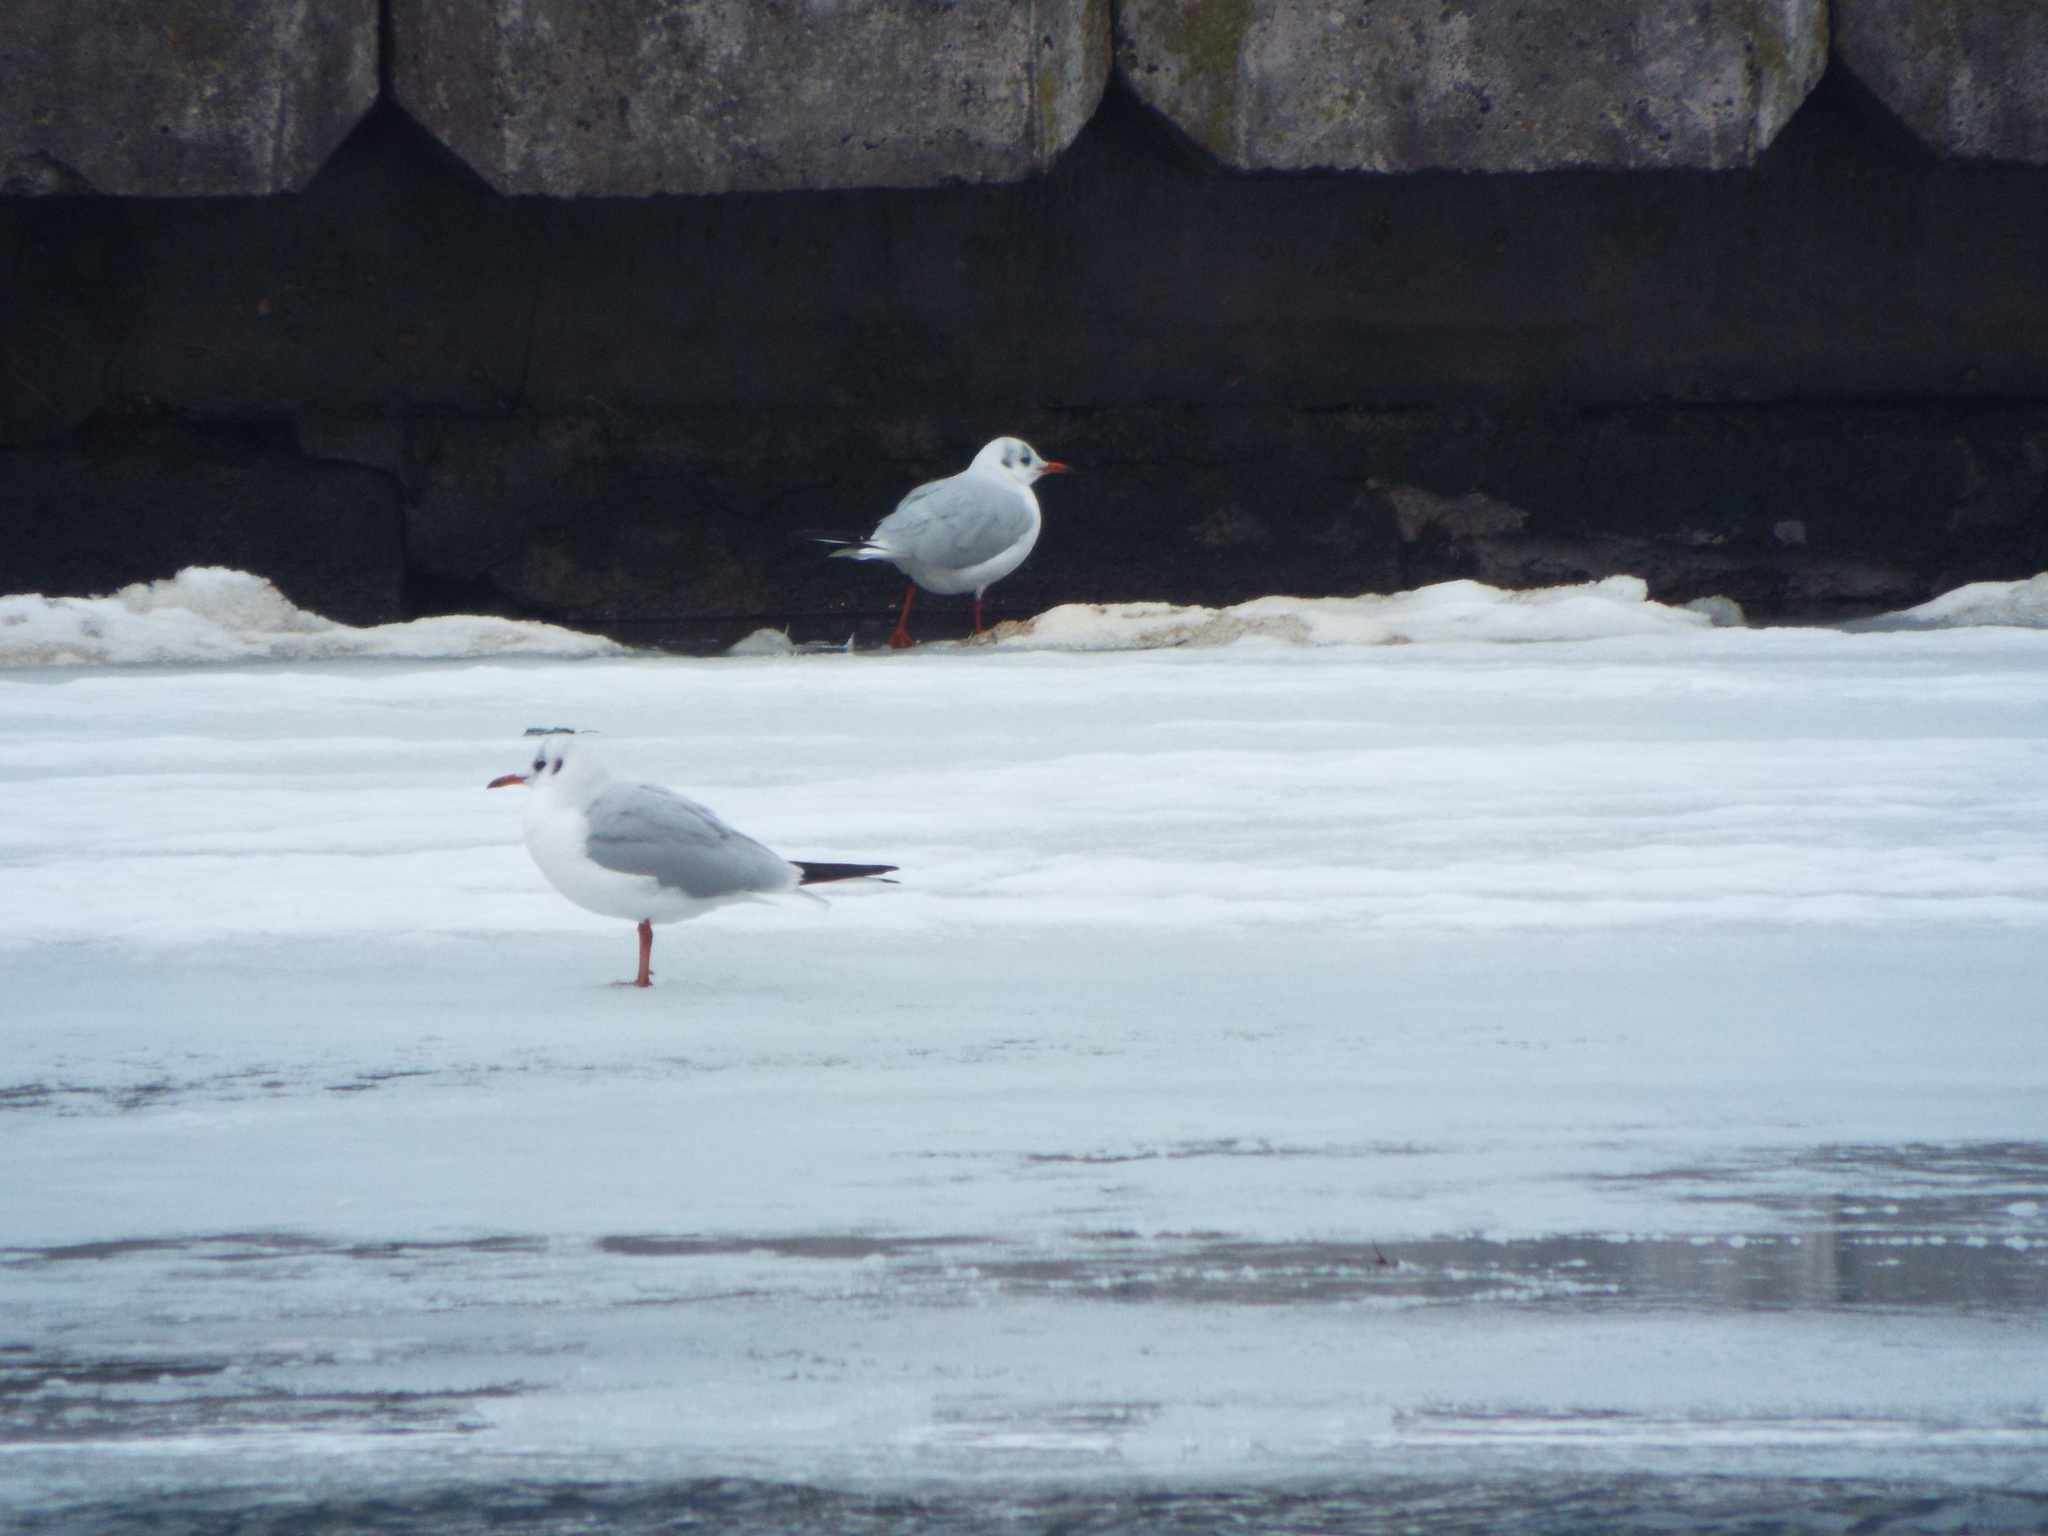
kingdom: Animalia
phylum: Chordata
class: Aves
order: Charadriiformes
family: Laridae
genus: Chroicocephalus
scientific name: Chroicocephalus ridibundus
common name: Black-headed gull
